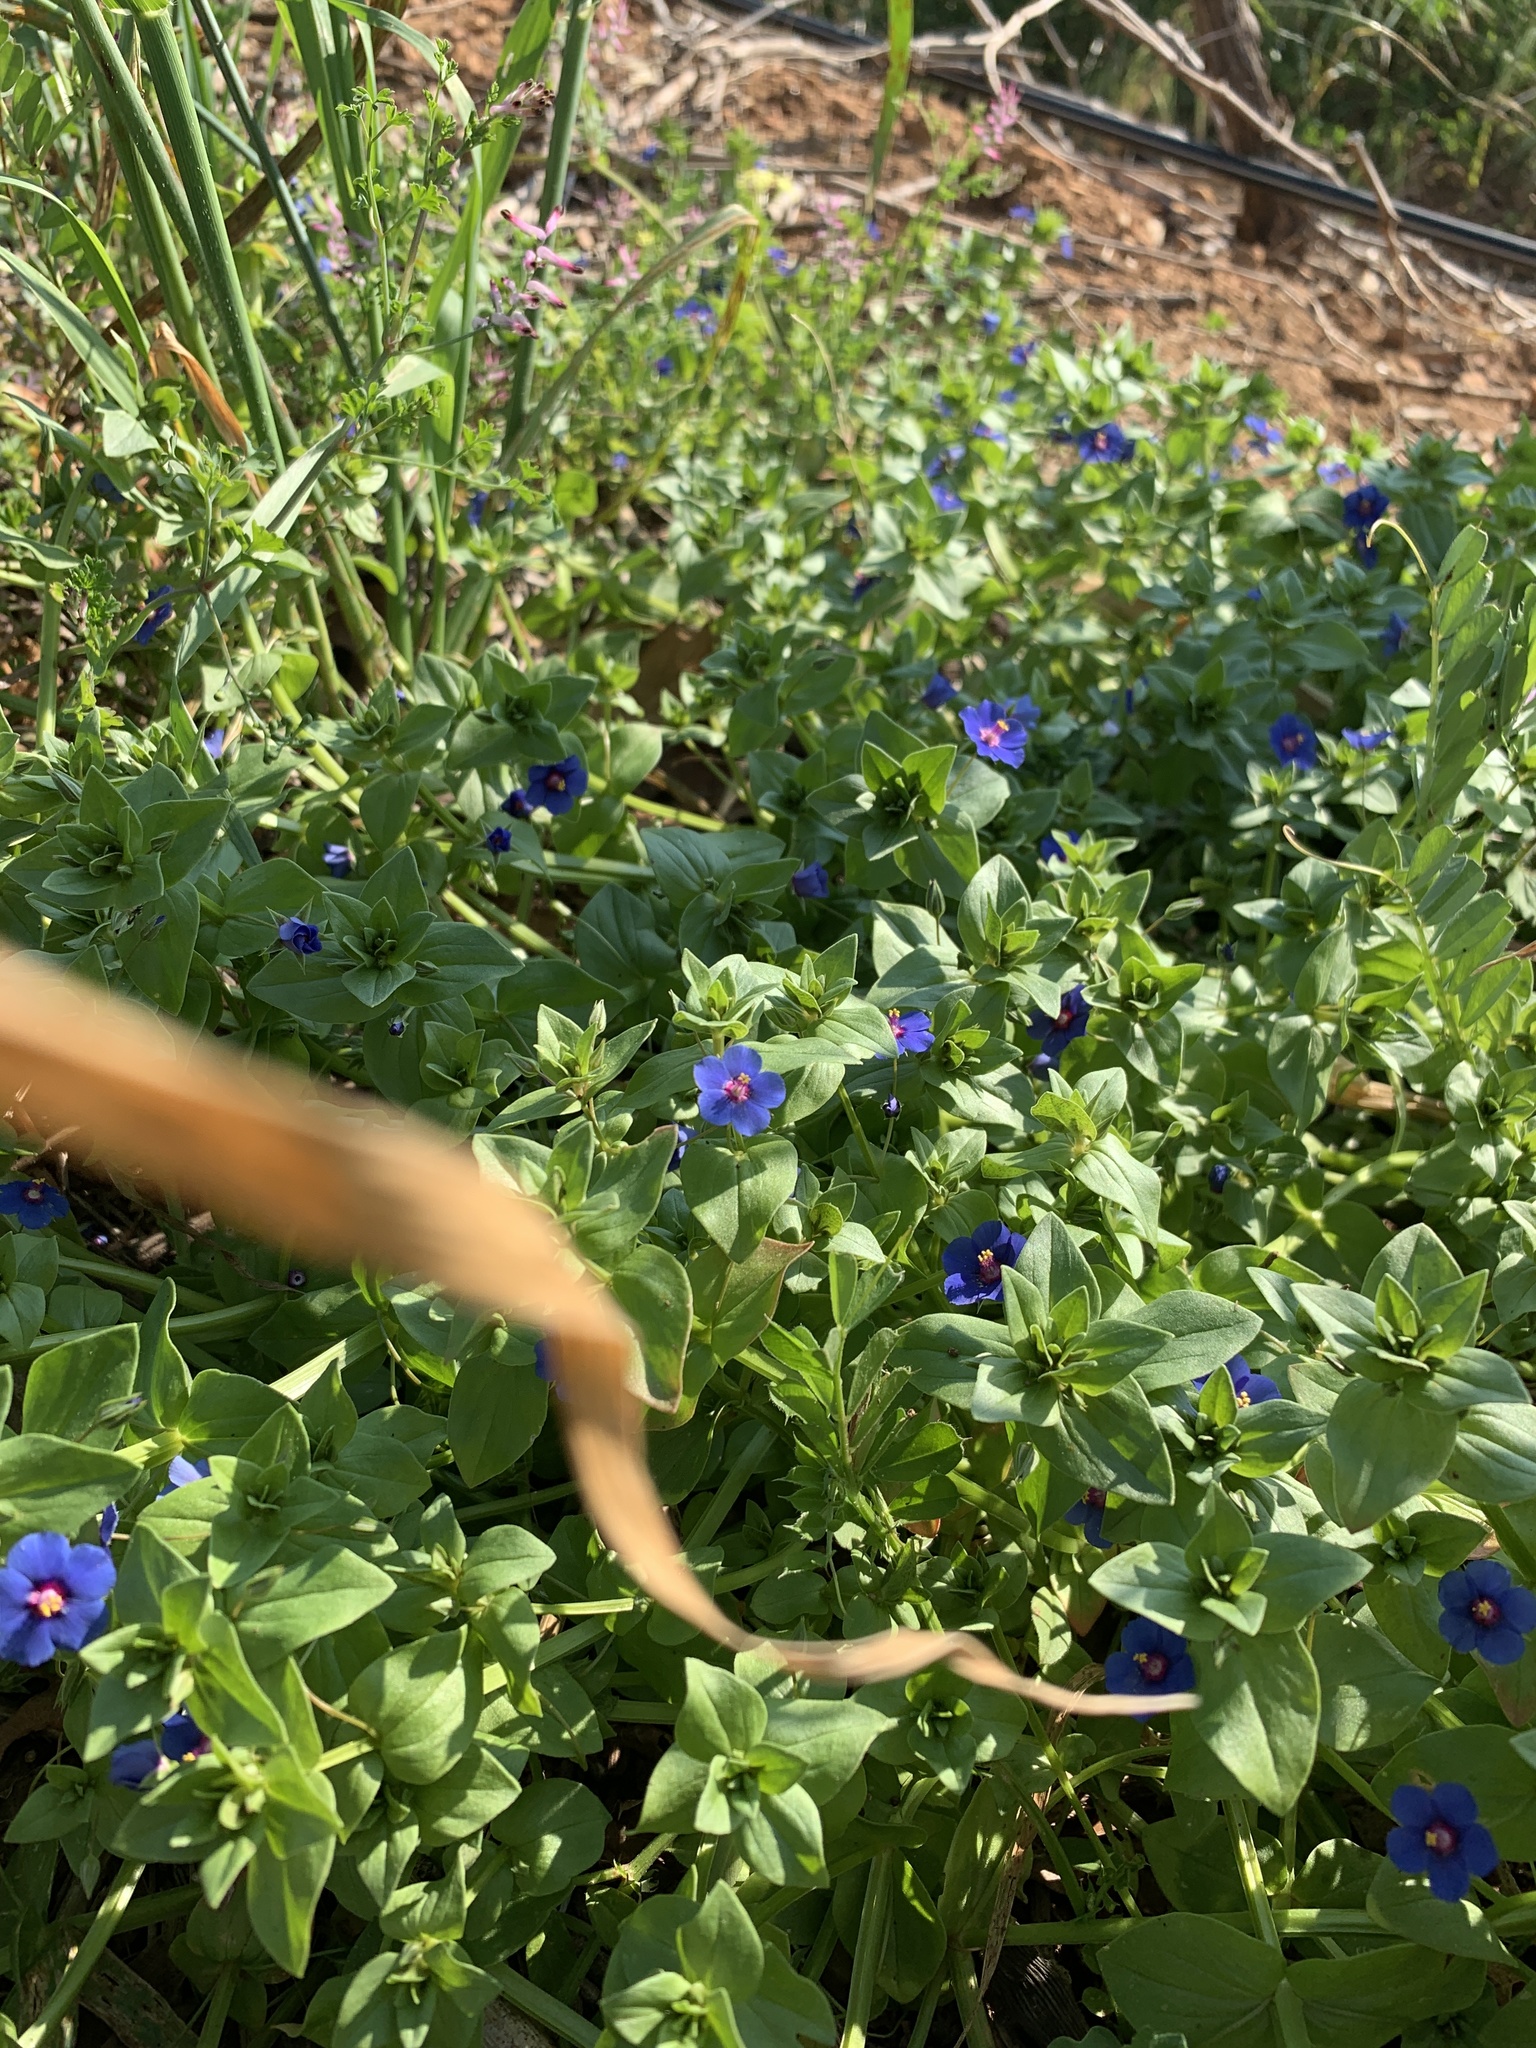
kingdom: Plantae
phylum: Tracheophyta
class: Magnoliopsida
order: Ericales
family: Primulaceae
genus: Lysimachia
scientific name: Lysimachia loeflingii
